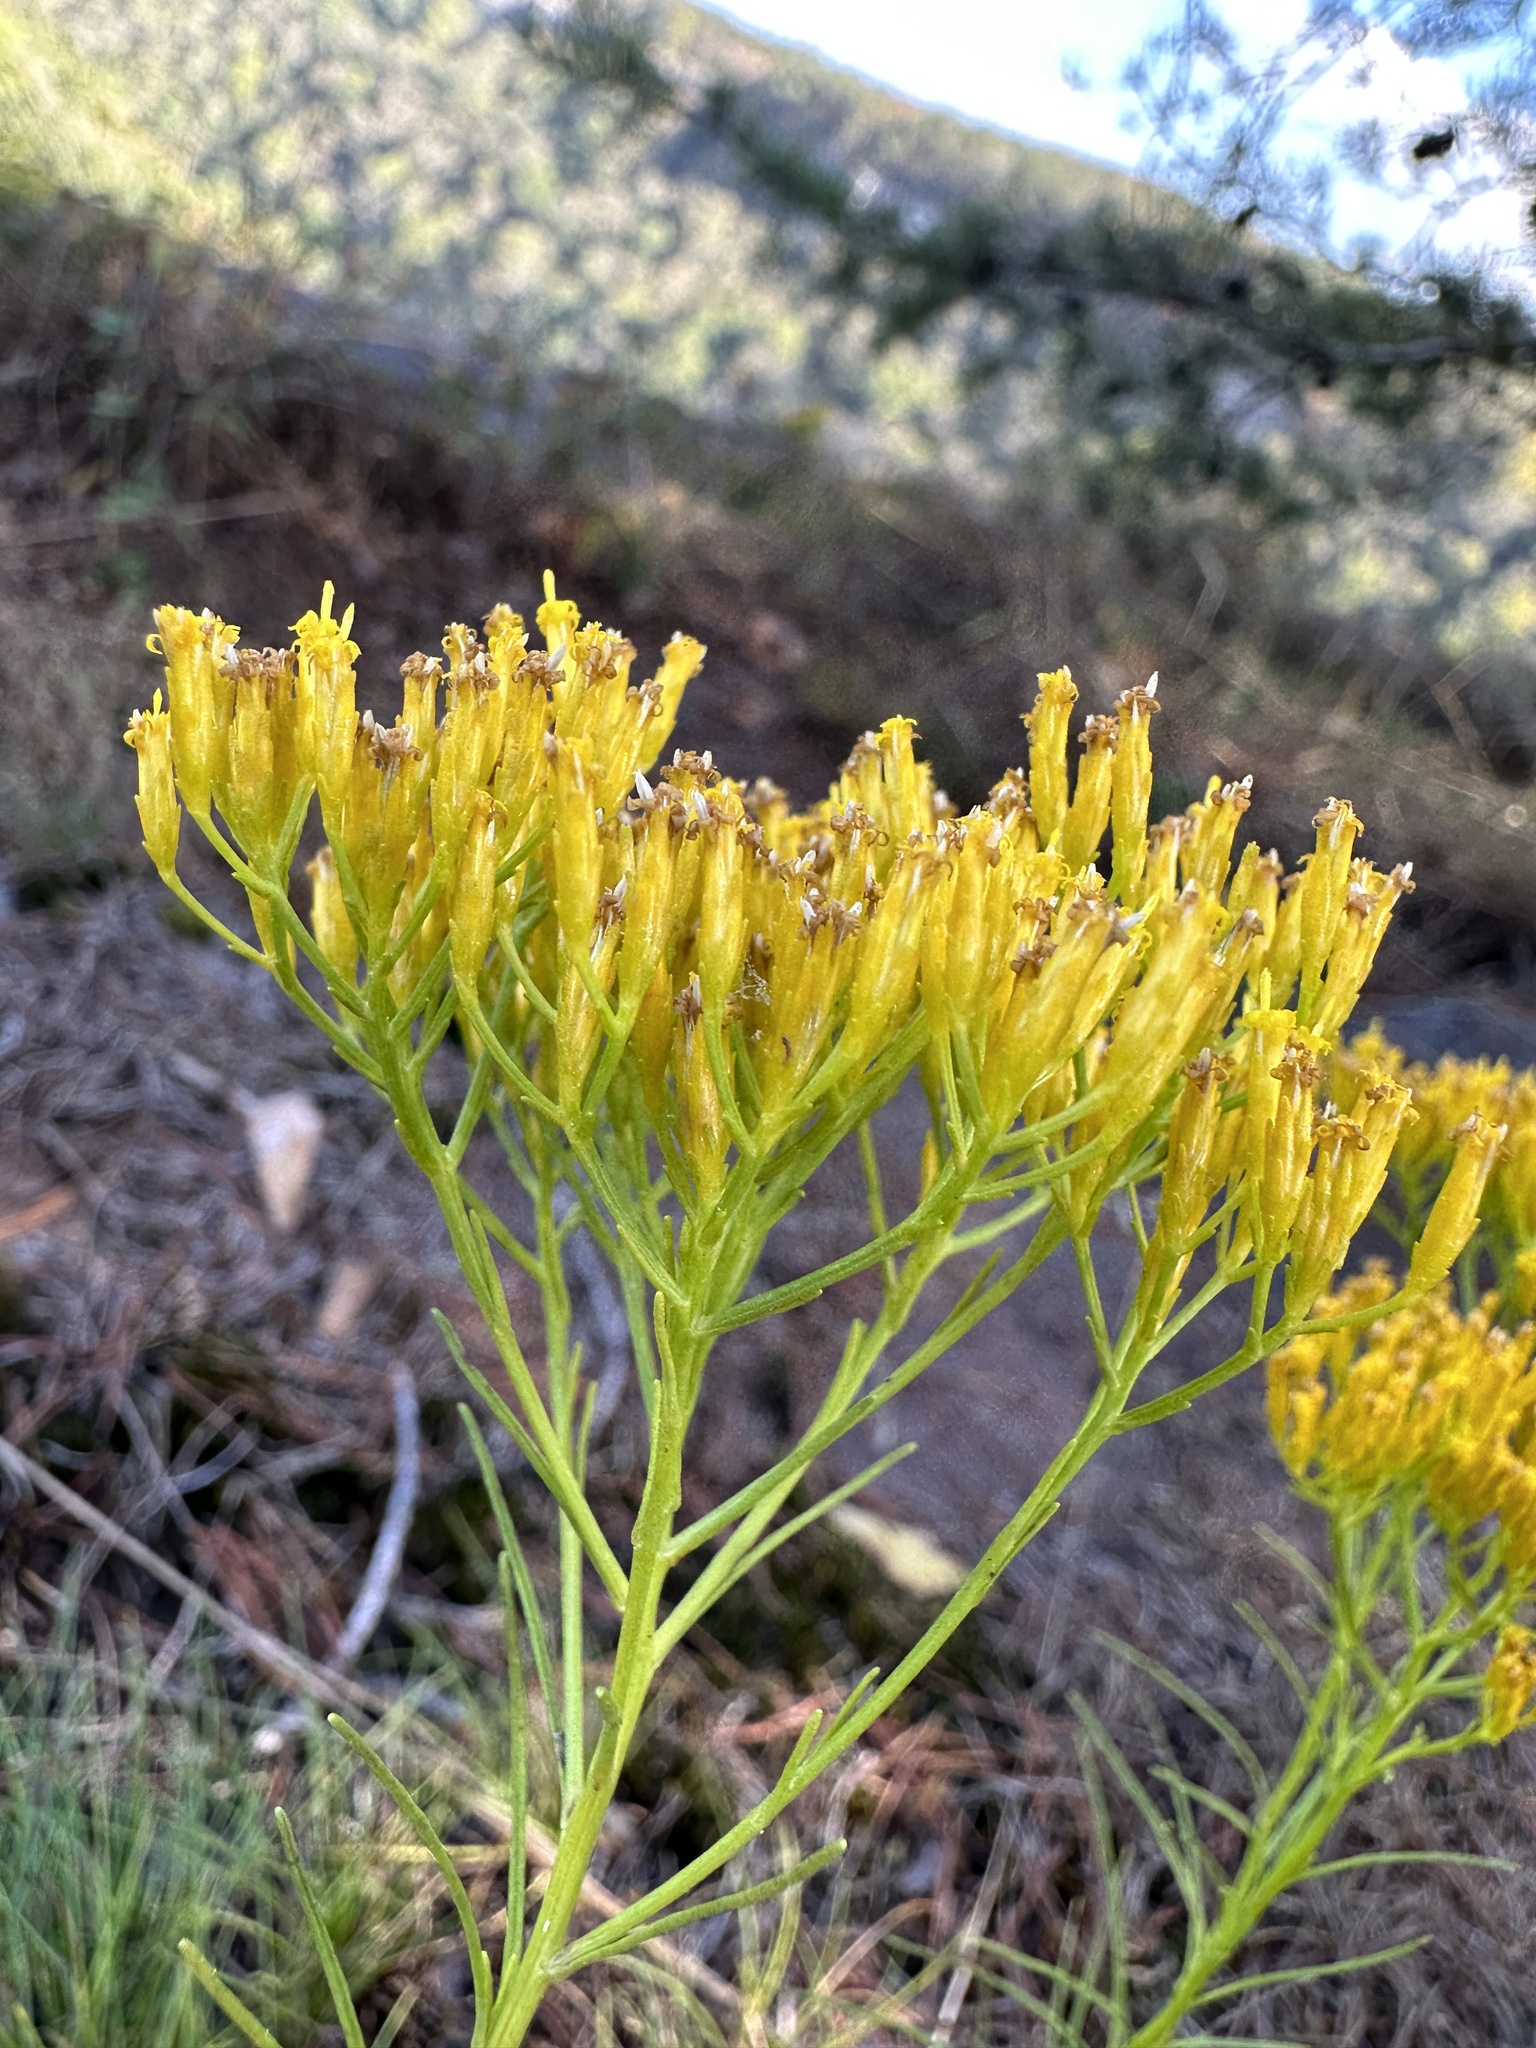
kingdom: Plantae
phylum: Tracheophyta
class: Magnoliopsida
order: Asterales
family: Asteraceae
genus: Bigelowia
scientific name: Bigelowia nuttallii
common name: Nuttall's rayless-goldenrod
